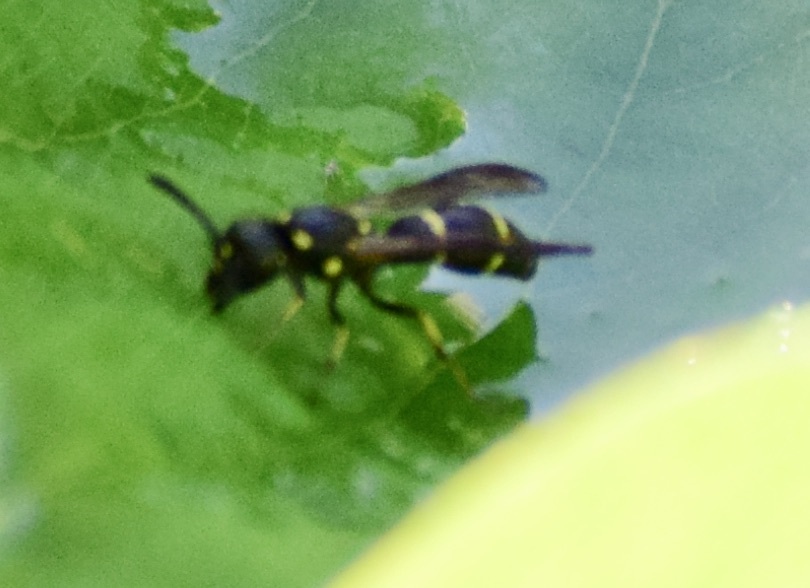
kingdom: Animalia
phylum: Arthropoda
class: Insecta
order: Hymenoptera
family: Eumenidae
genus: Symmorphus
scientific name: Symmorphus
